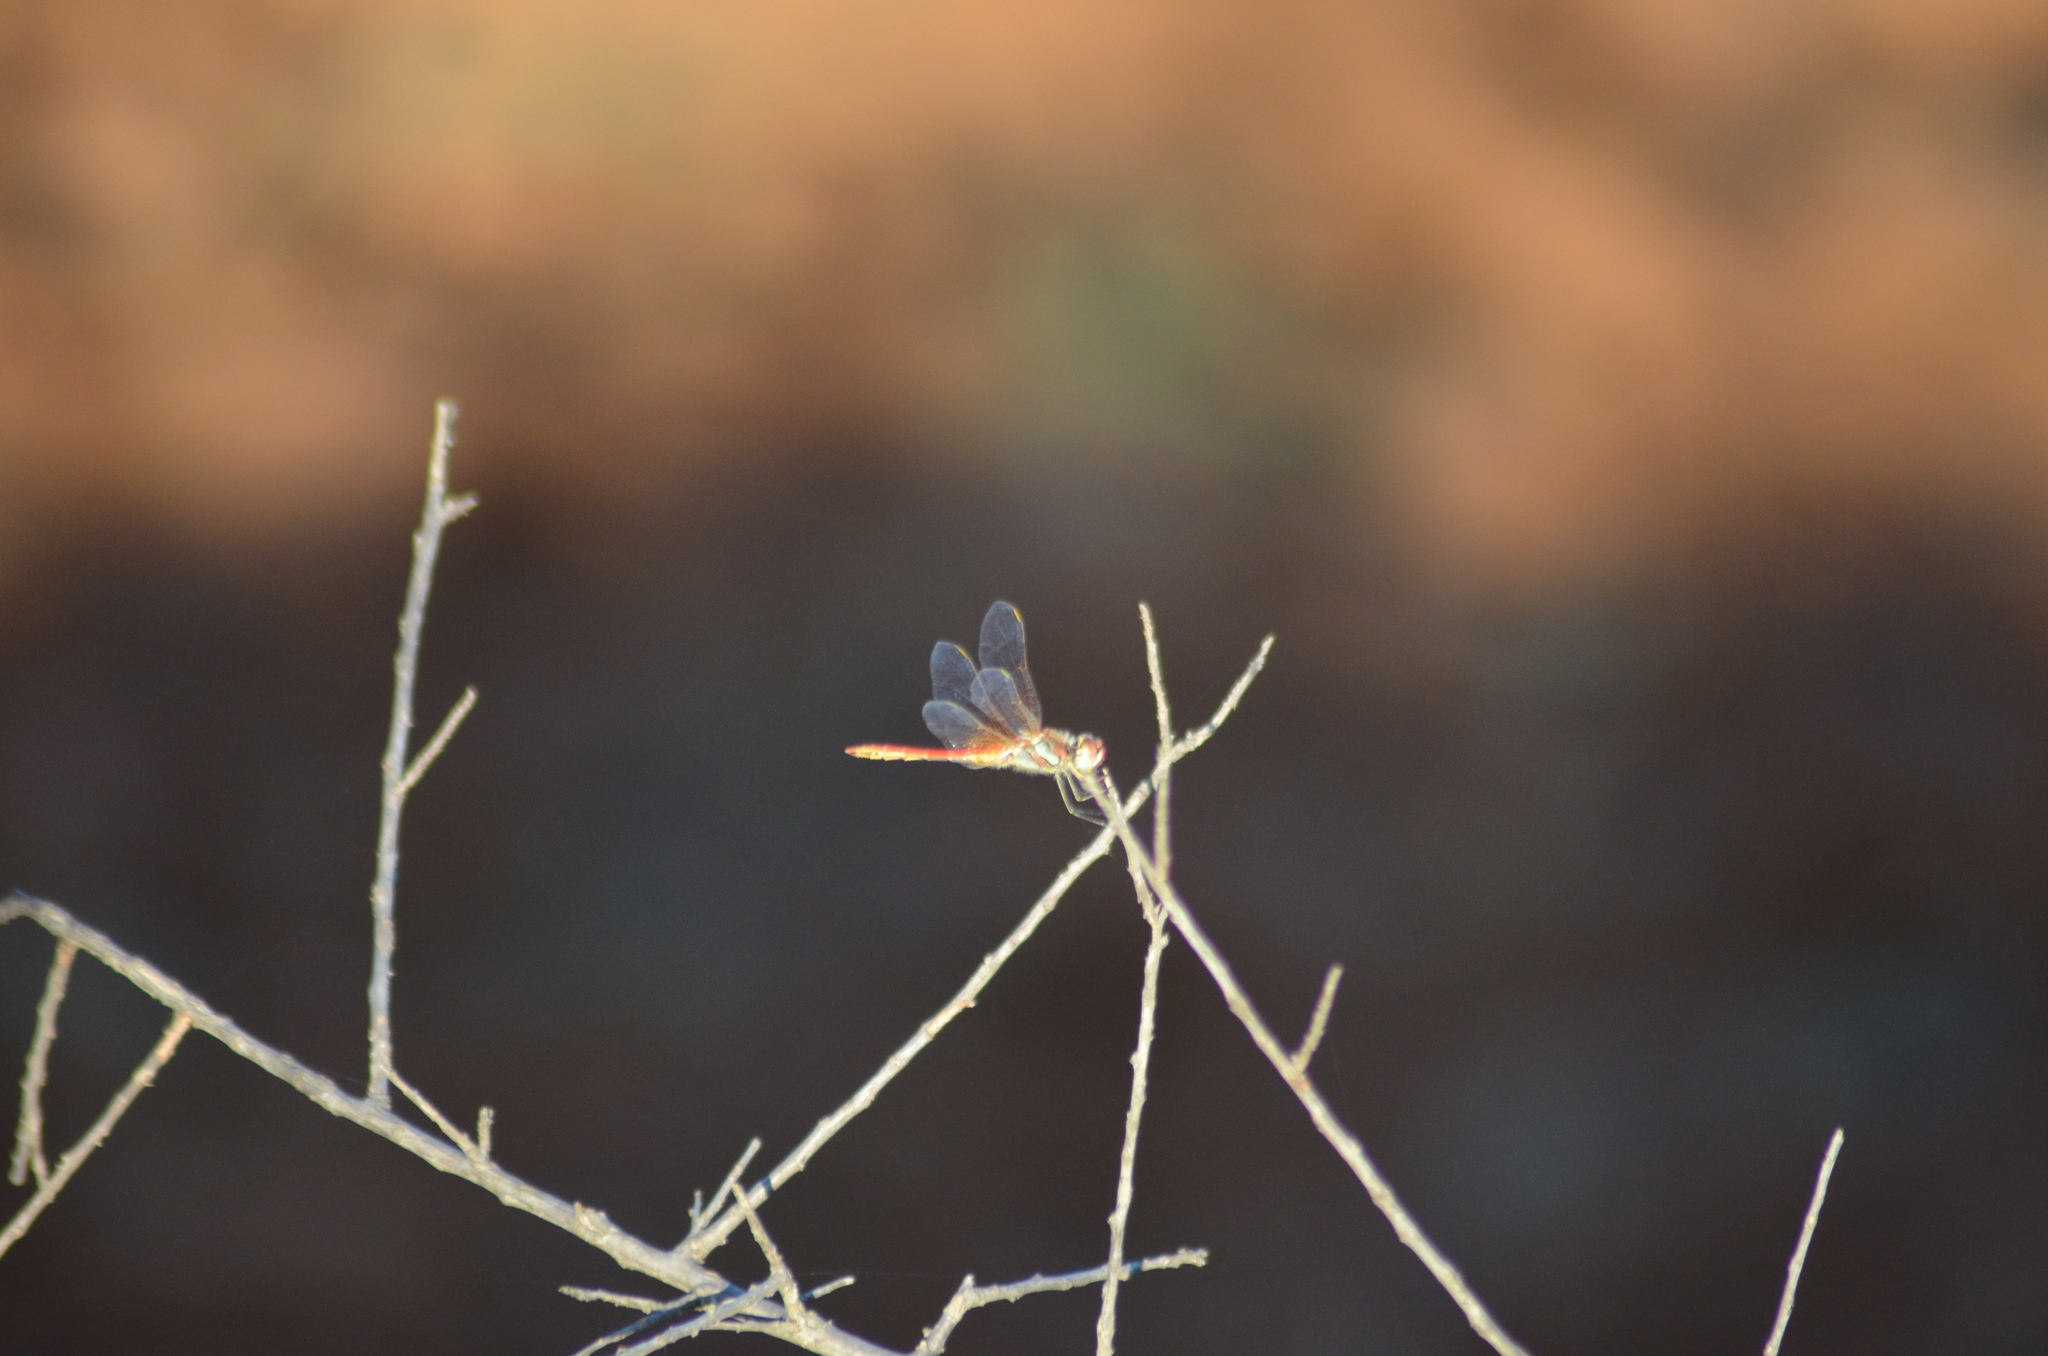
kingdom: Animalia
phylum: Arthropoda
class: Insecta
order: Odonata
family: Libellulidae
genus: Sympetrum
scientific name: Sympetrum fonscolombii
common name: Red-veined darter
